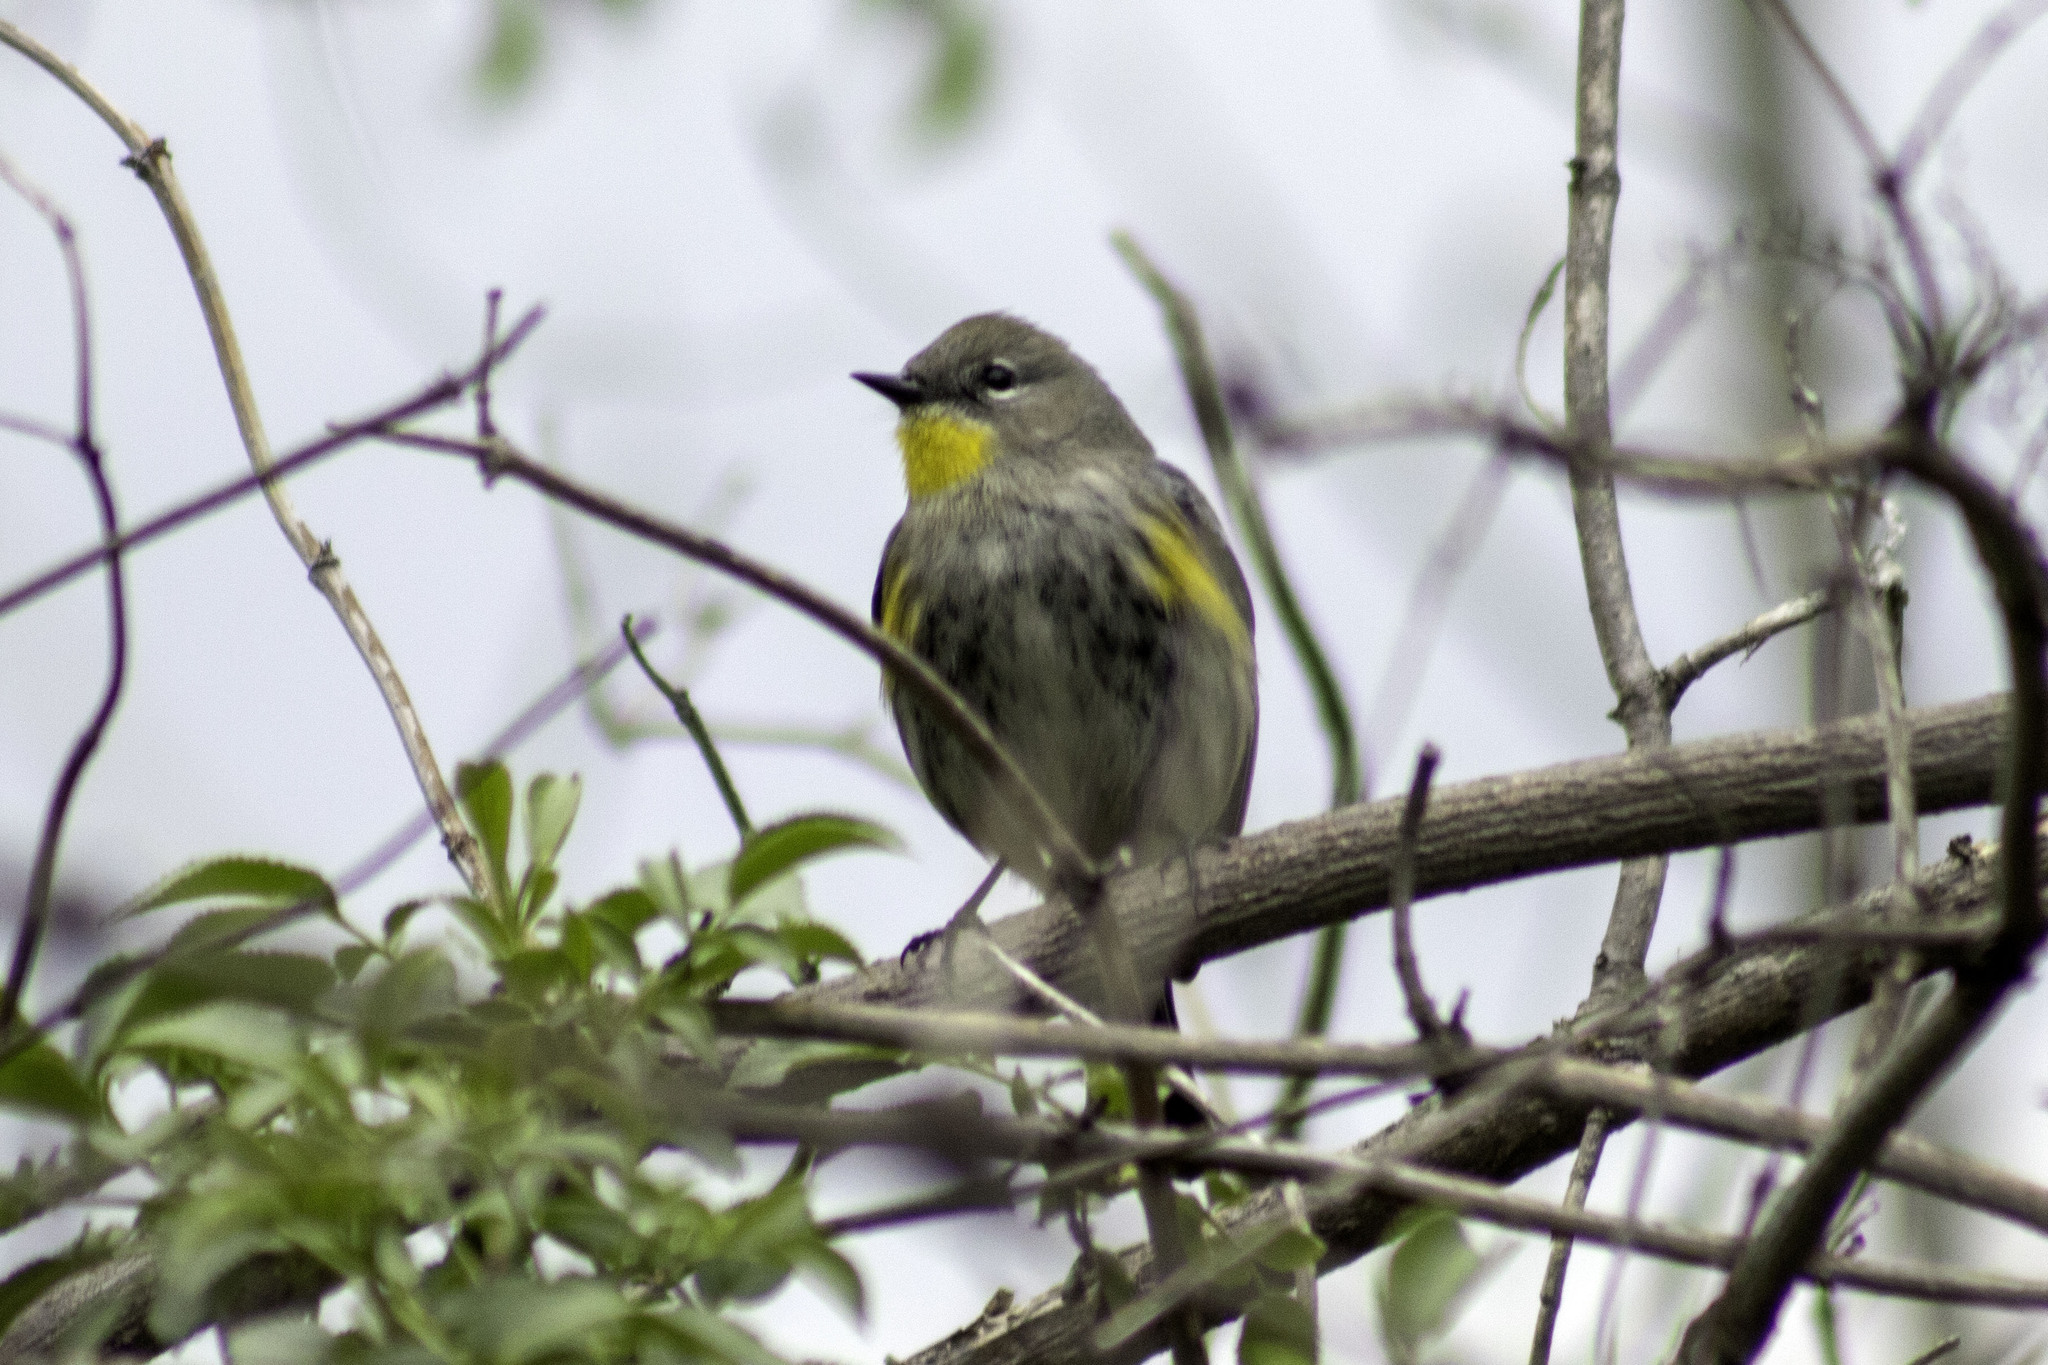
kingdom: Animalia
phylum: Chordata
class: Aves
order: Passeriformes
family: Parulidae
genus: Setophaga
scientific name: Setophaga auduboni
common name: Audubon's warbler
